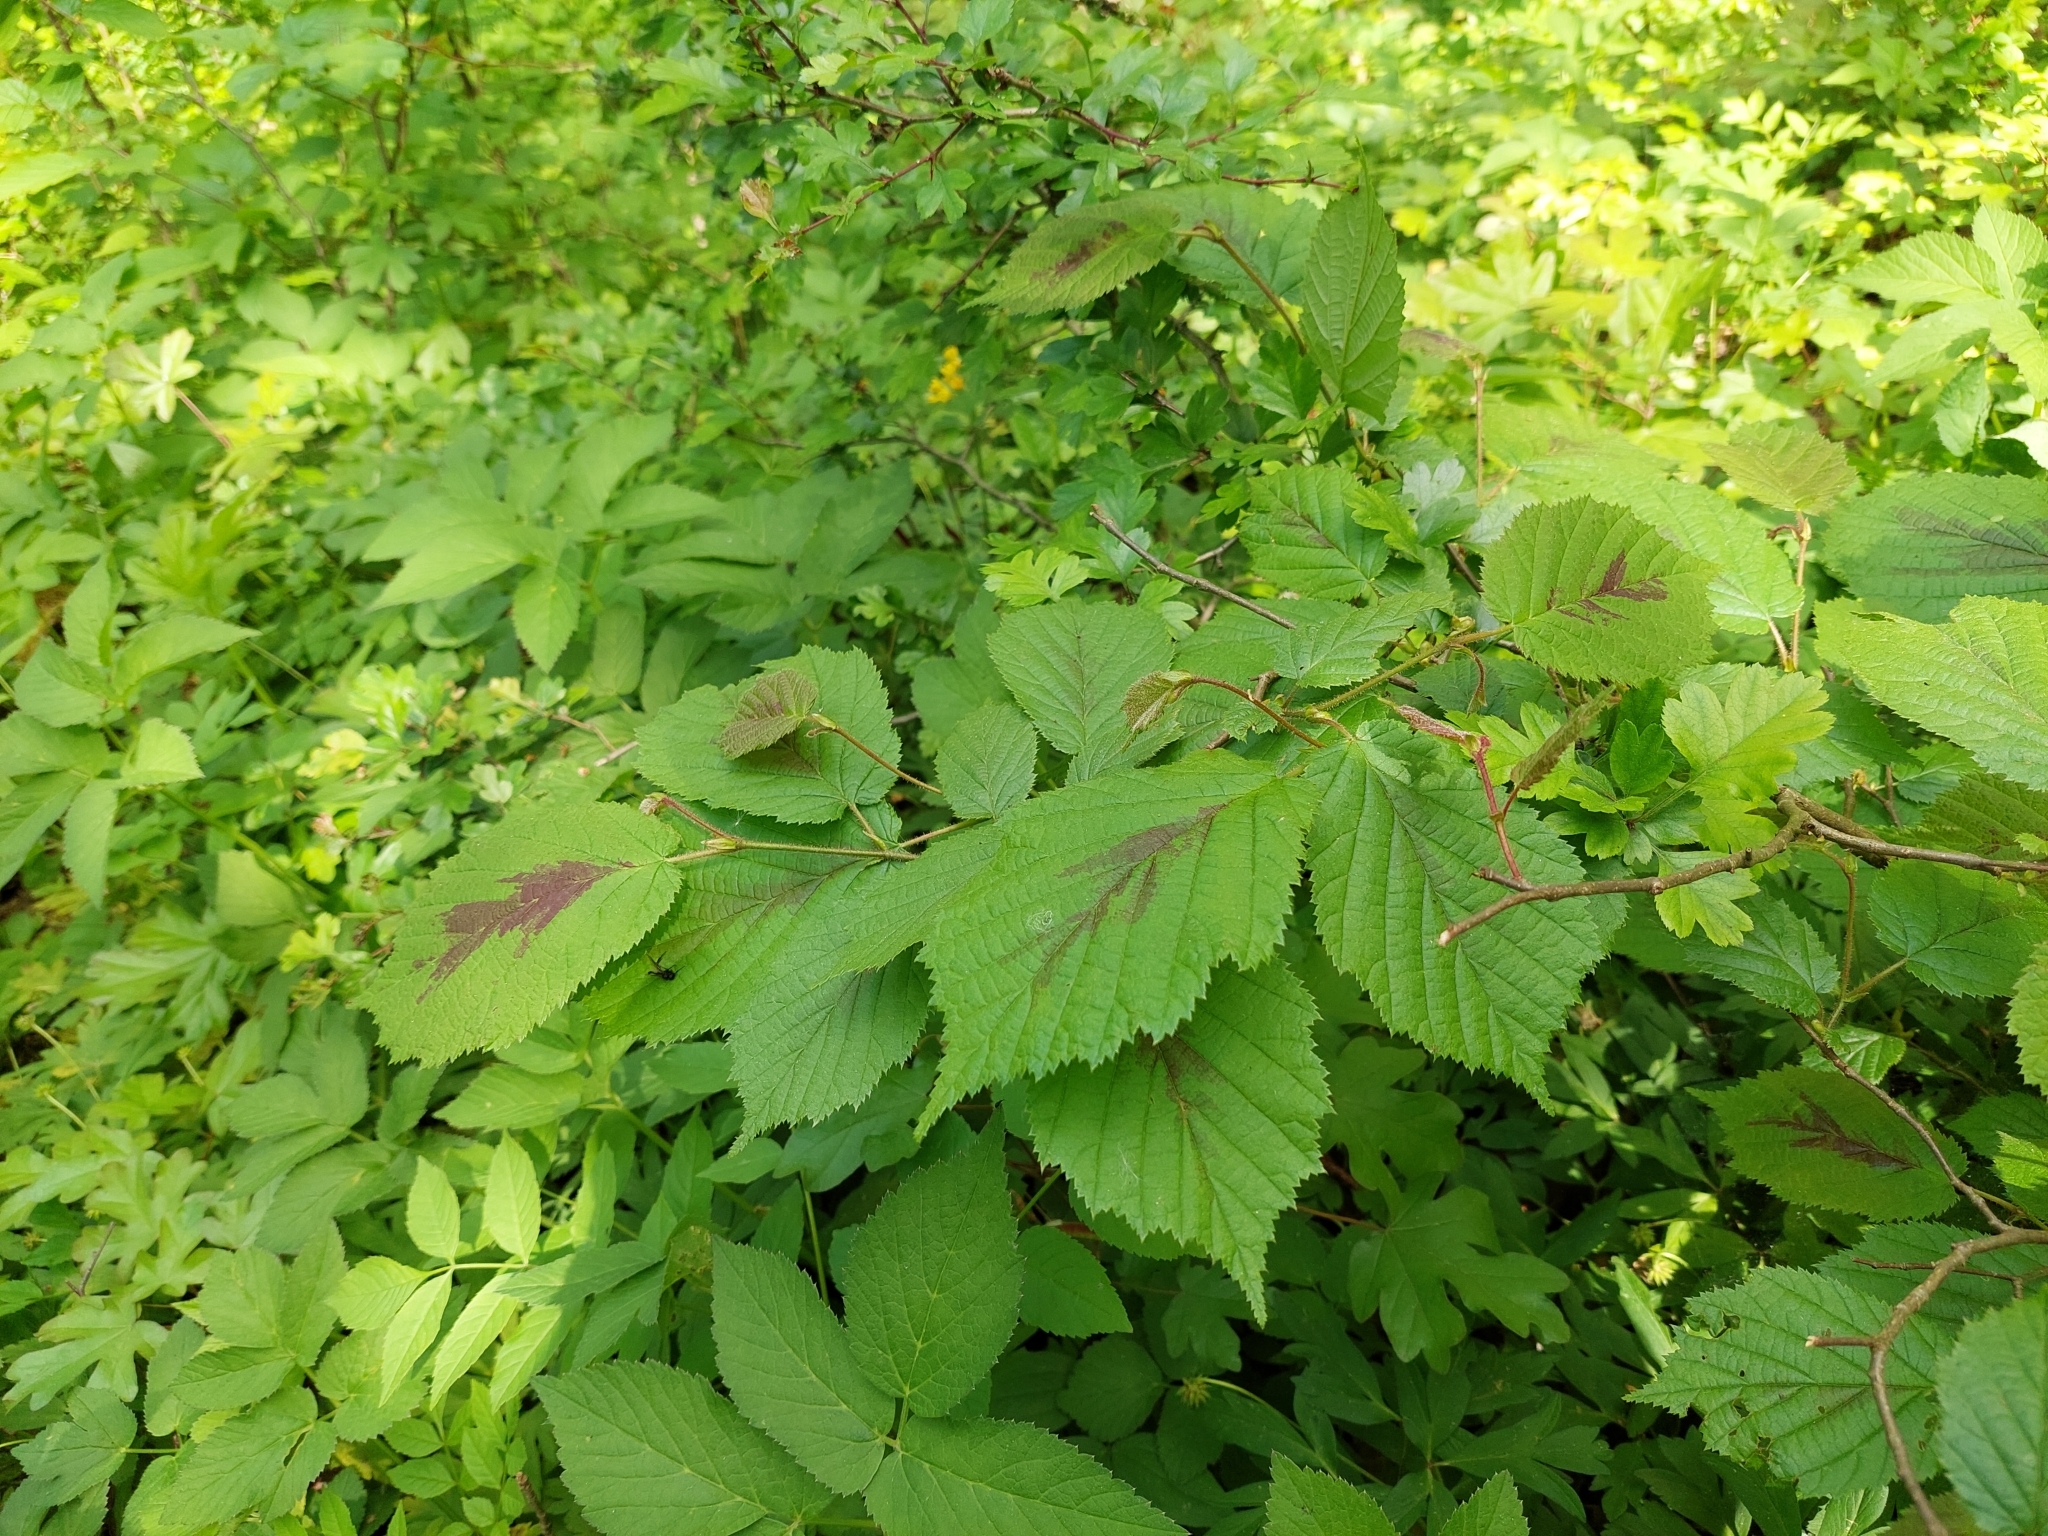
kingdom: Plantae
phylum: Tracheophyta
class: Magnoliopsida
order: Fagales
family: Betulaceae
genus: Corylus
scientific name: Corylus avellana
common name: European hazel
